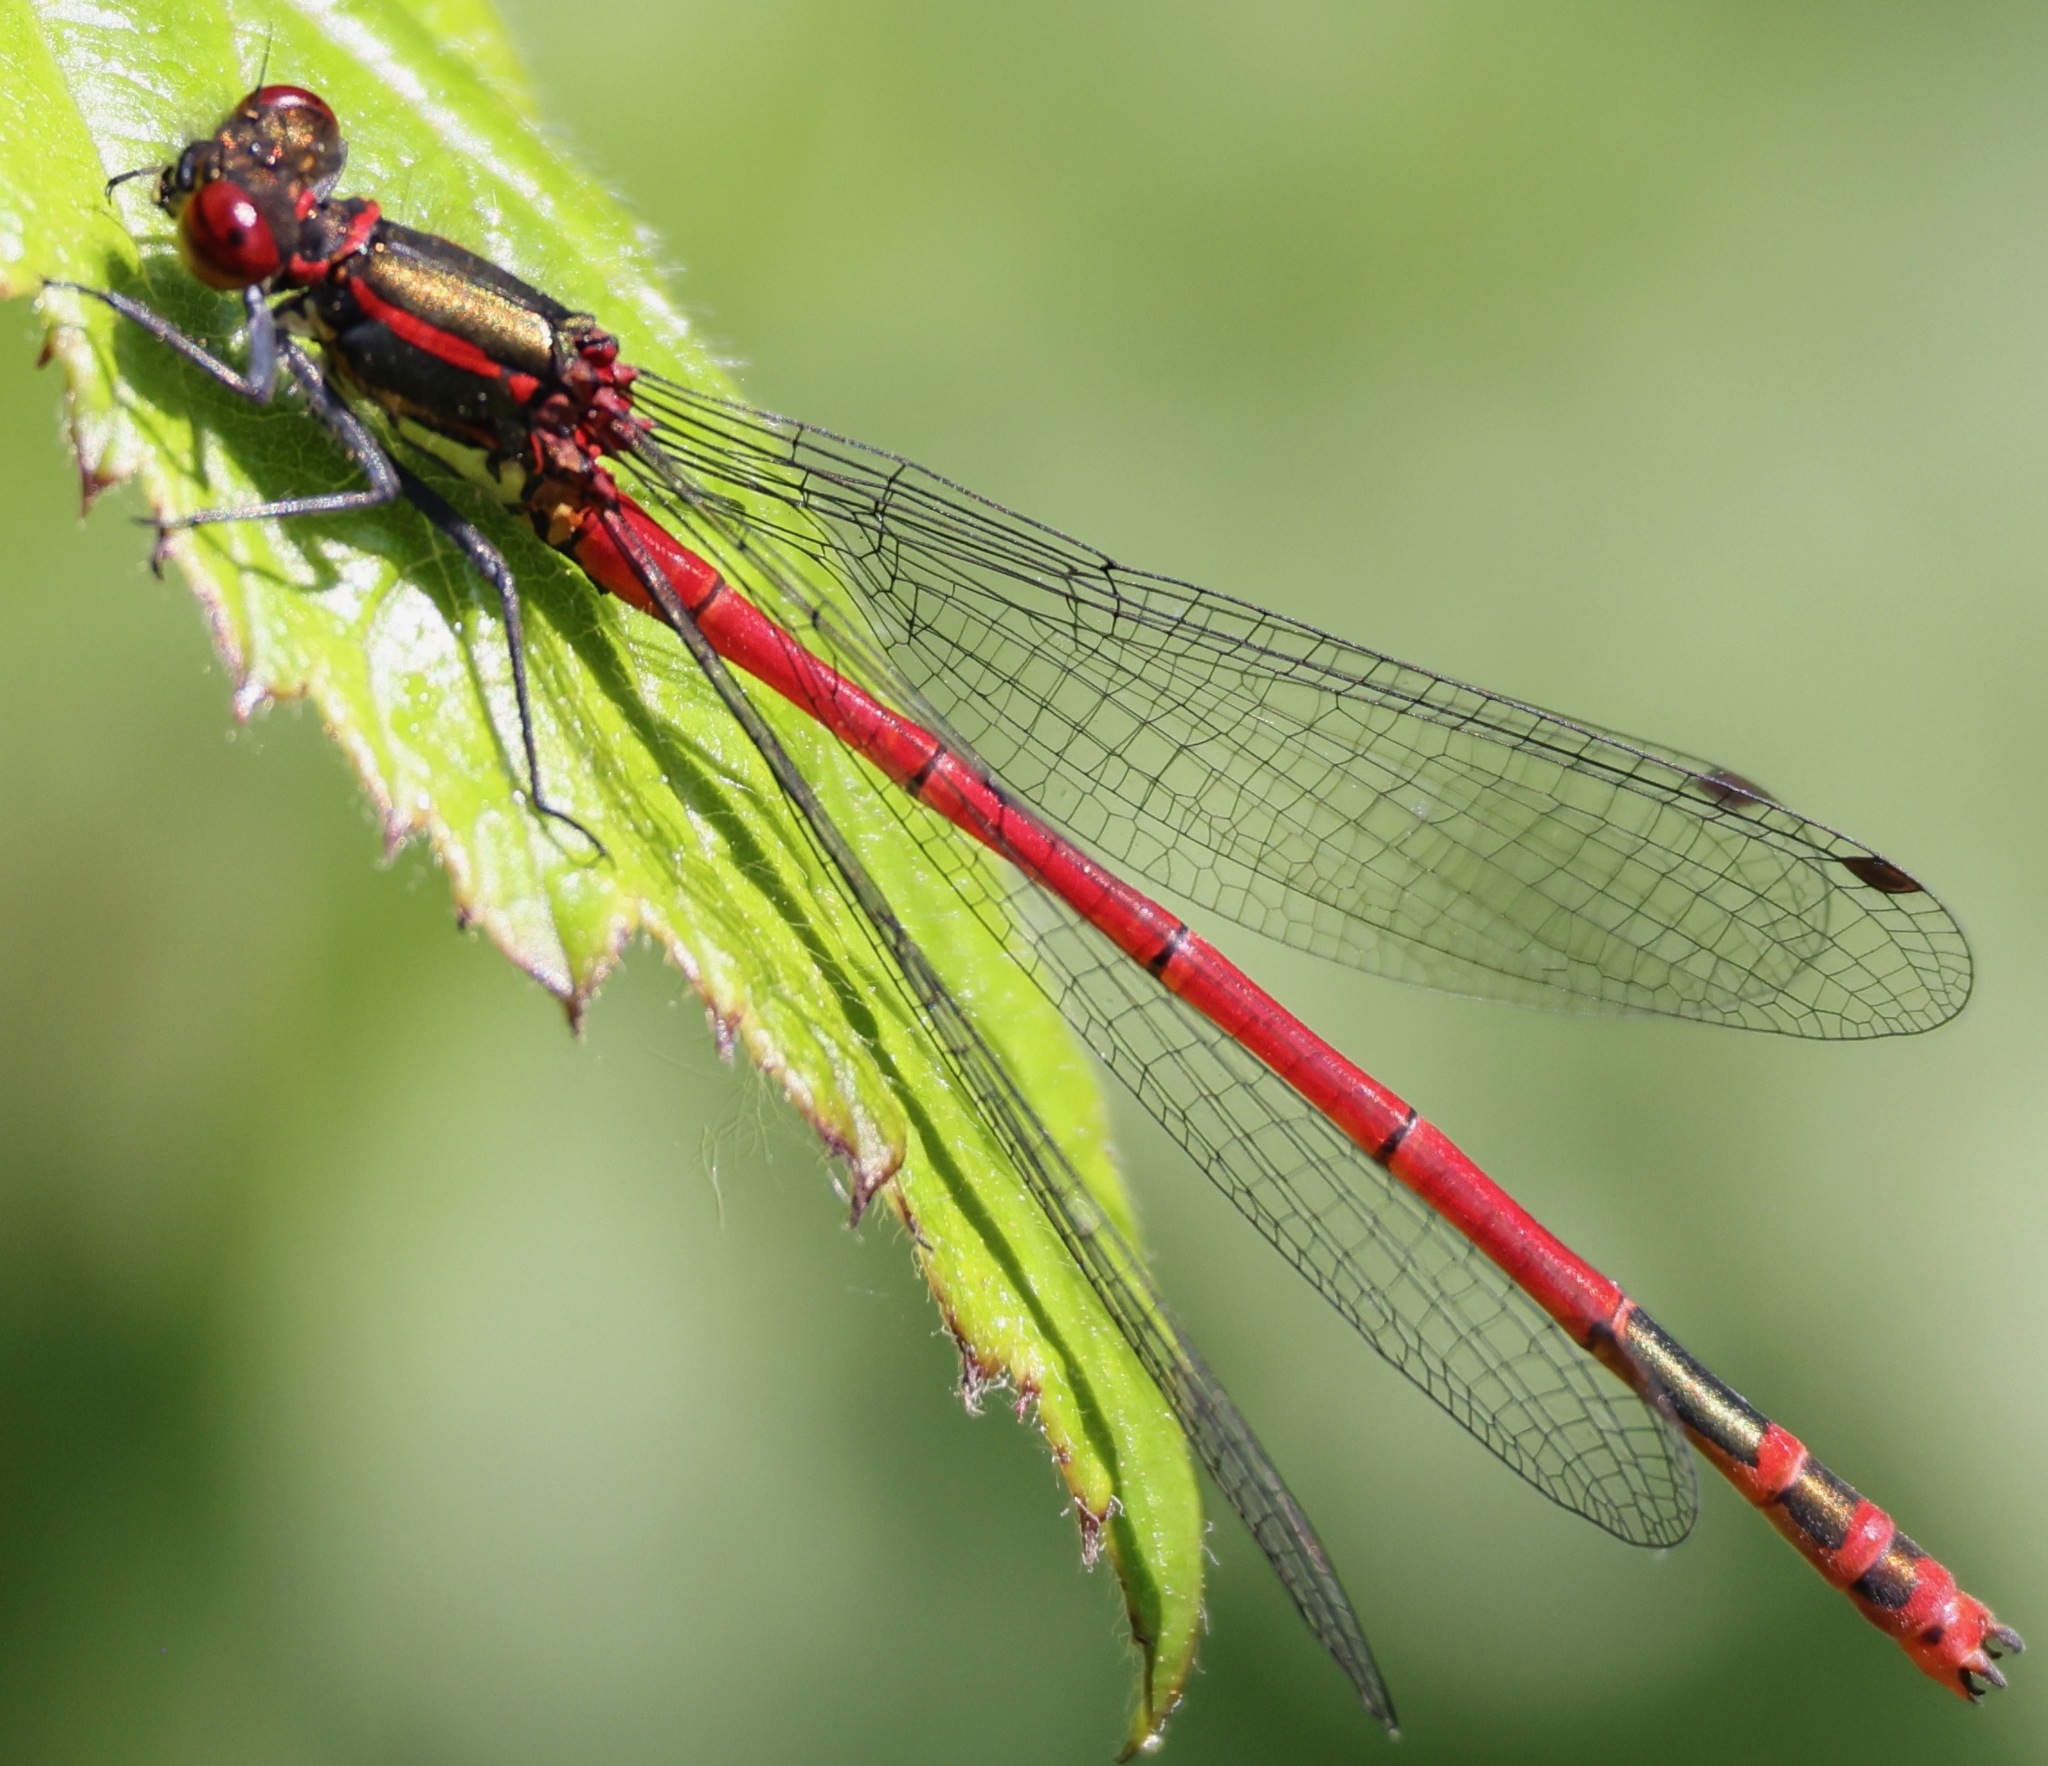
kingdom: Animalia
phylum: Arthropoda
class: Insecta
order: Odonata
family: Coenagrionidae
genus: Pyrrhosoma
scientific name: Pyrrhosoma nymphula
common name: Large red damsel
